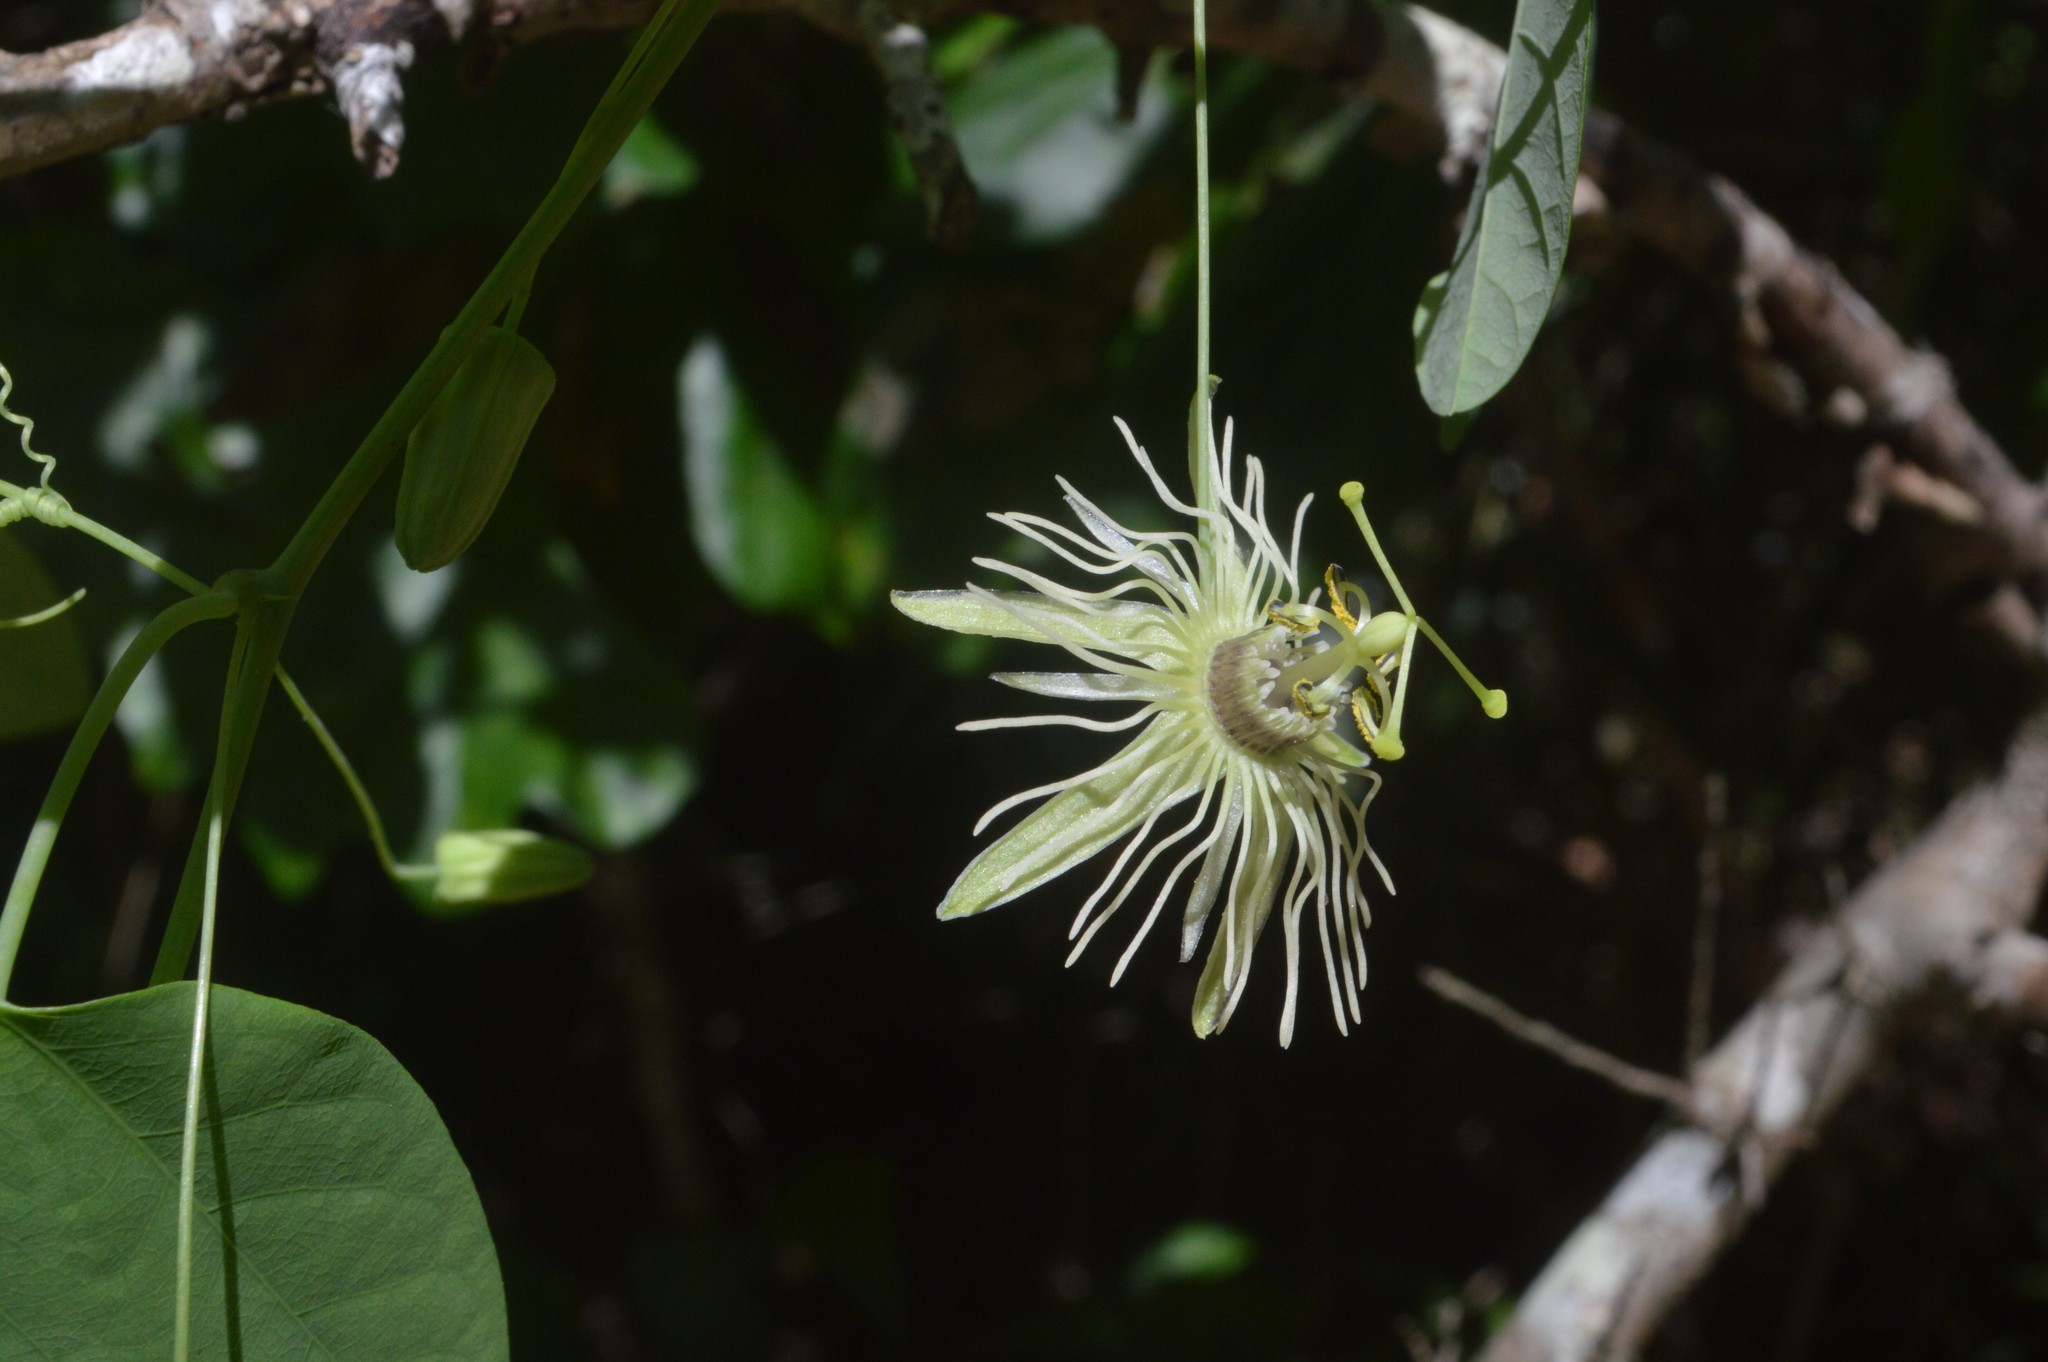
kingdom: Plantae
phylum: Tracheophyta
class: Magnoliopsida
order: Malpighiales
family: Passifloraceae
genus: Passiflora
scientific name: Passiflora lutea
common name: Yellow passionflower
